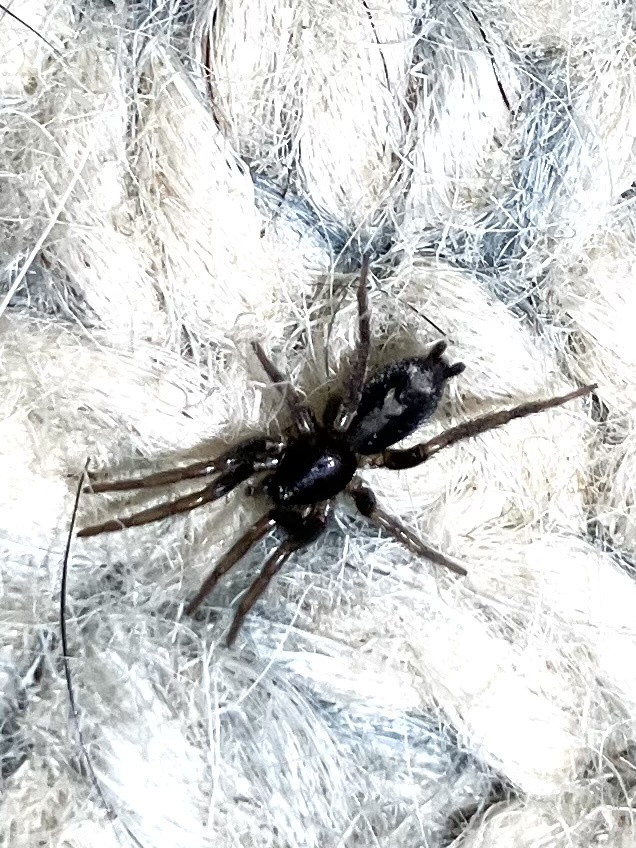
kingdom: Animalia
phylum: Arthropoda
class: Arachnida
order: Araneae
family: Gnaphosidae
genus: Herpyllus
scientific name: Herpyllus ecclesiasticus
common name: Eastern parson spider
